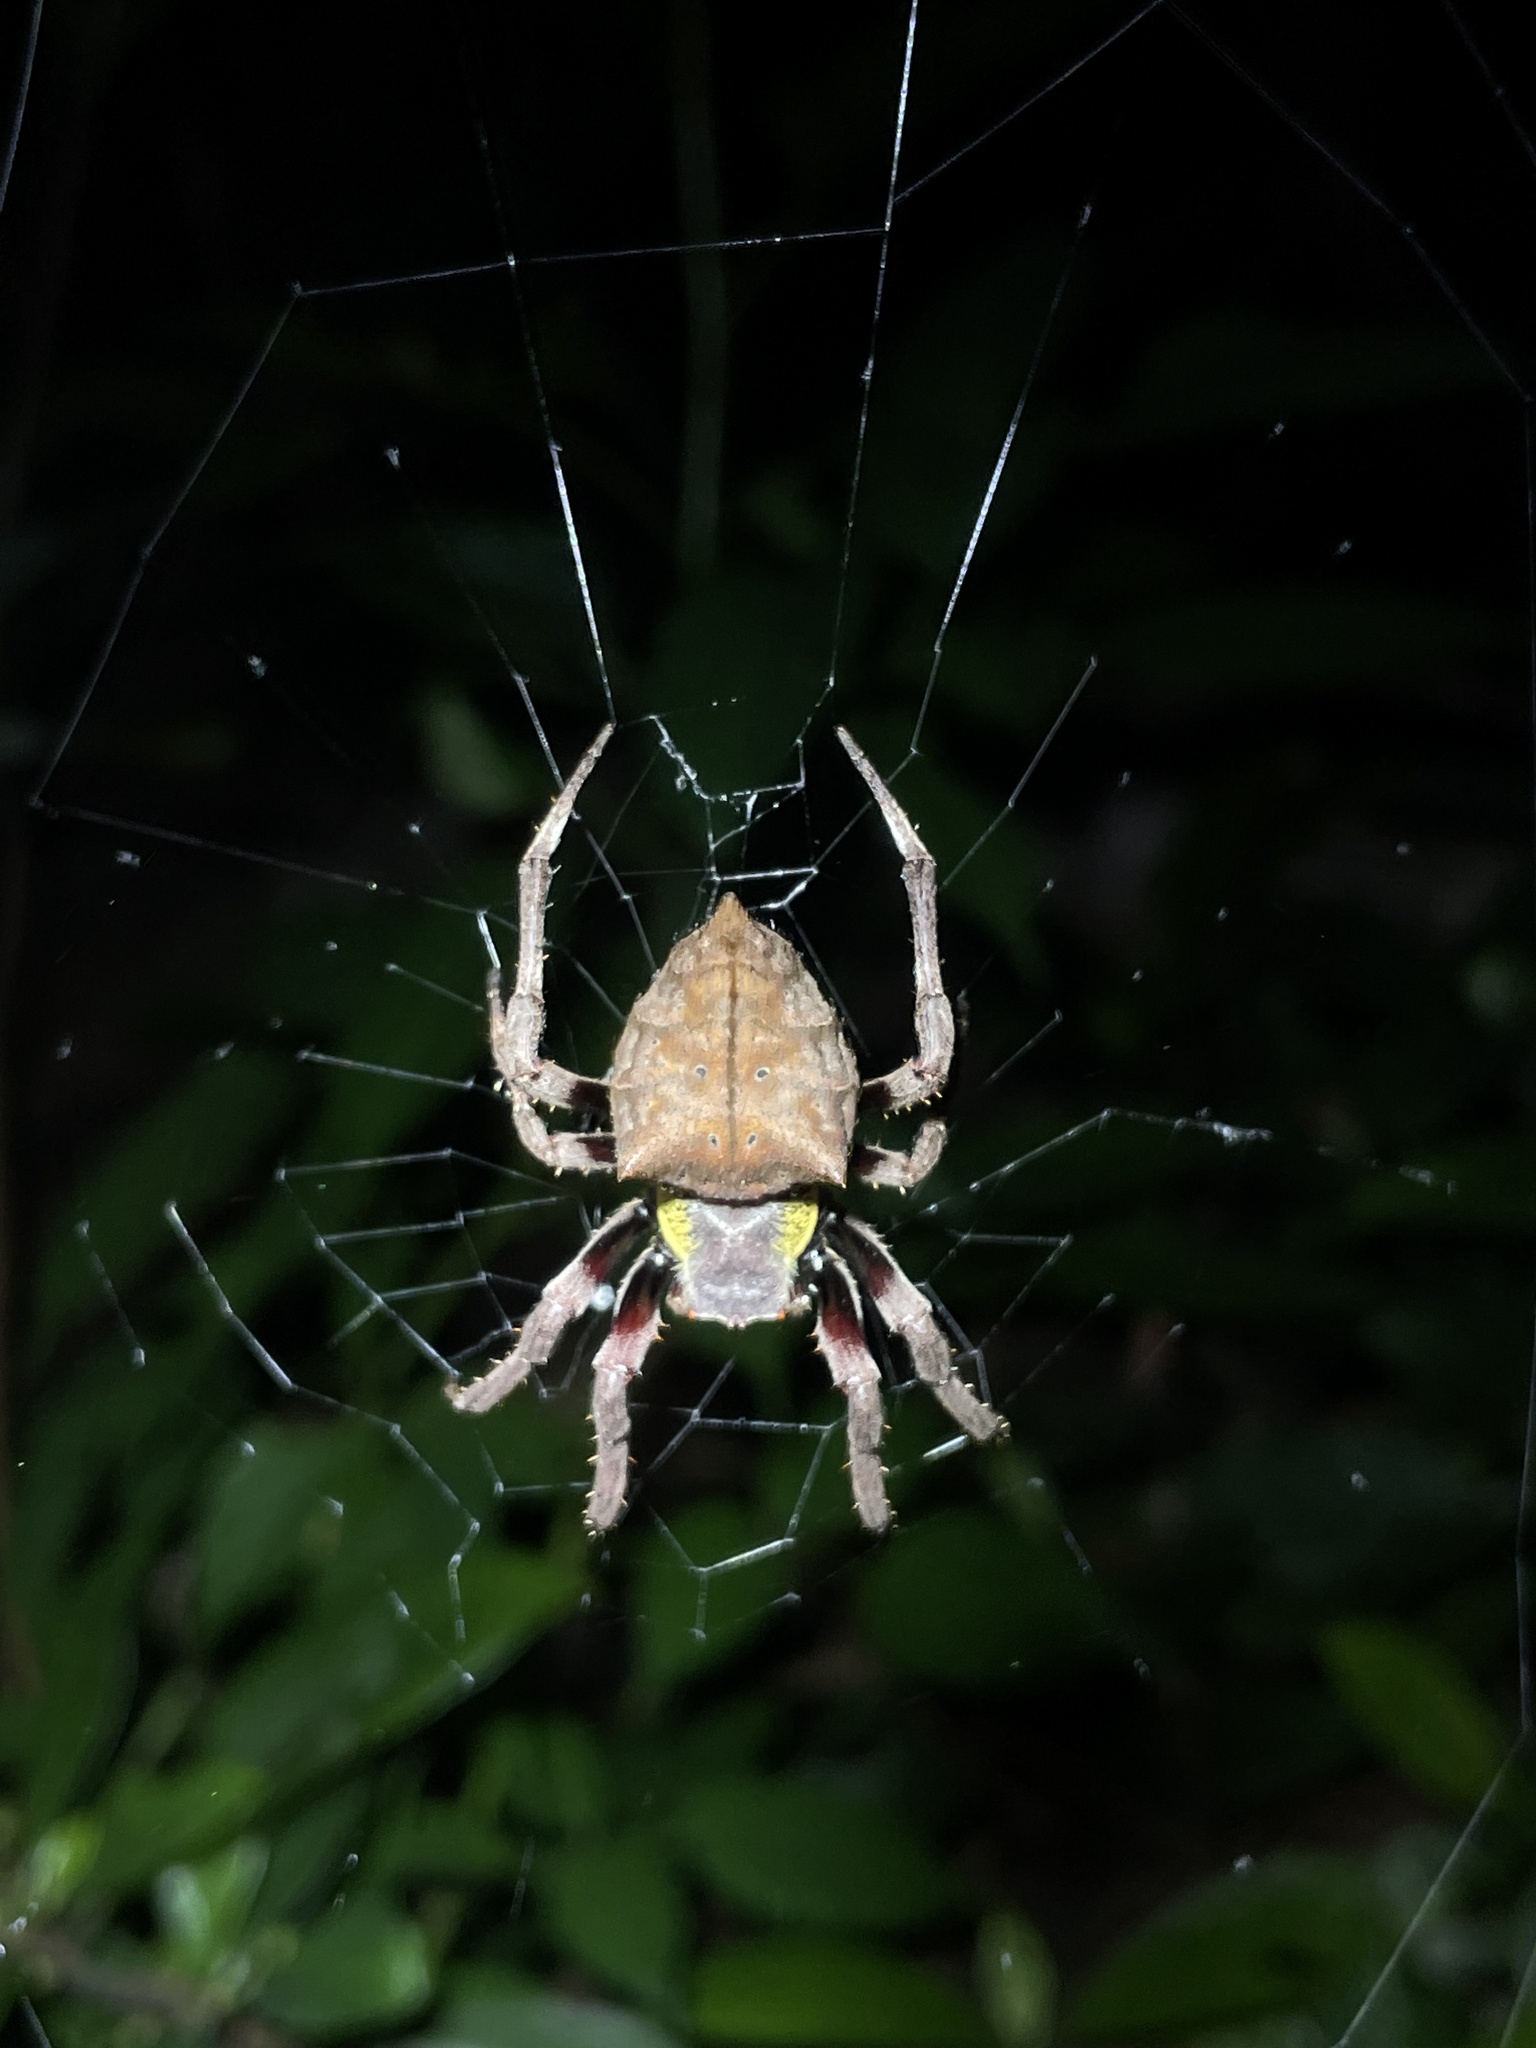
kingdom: Animalia
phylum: Arthropoda
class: Arachnida
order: Araneae
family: Araneidae
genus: Parawixia
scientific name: Parawixia dehaani
